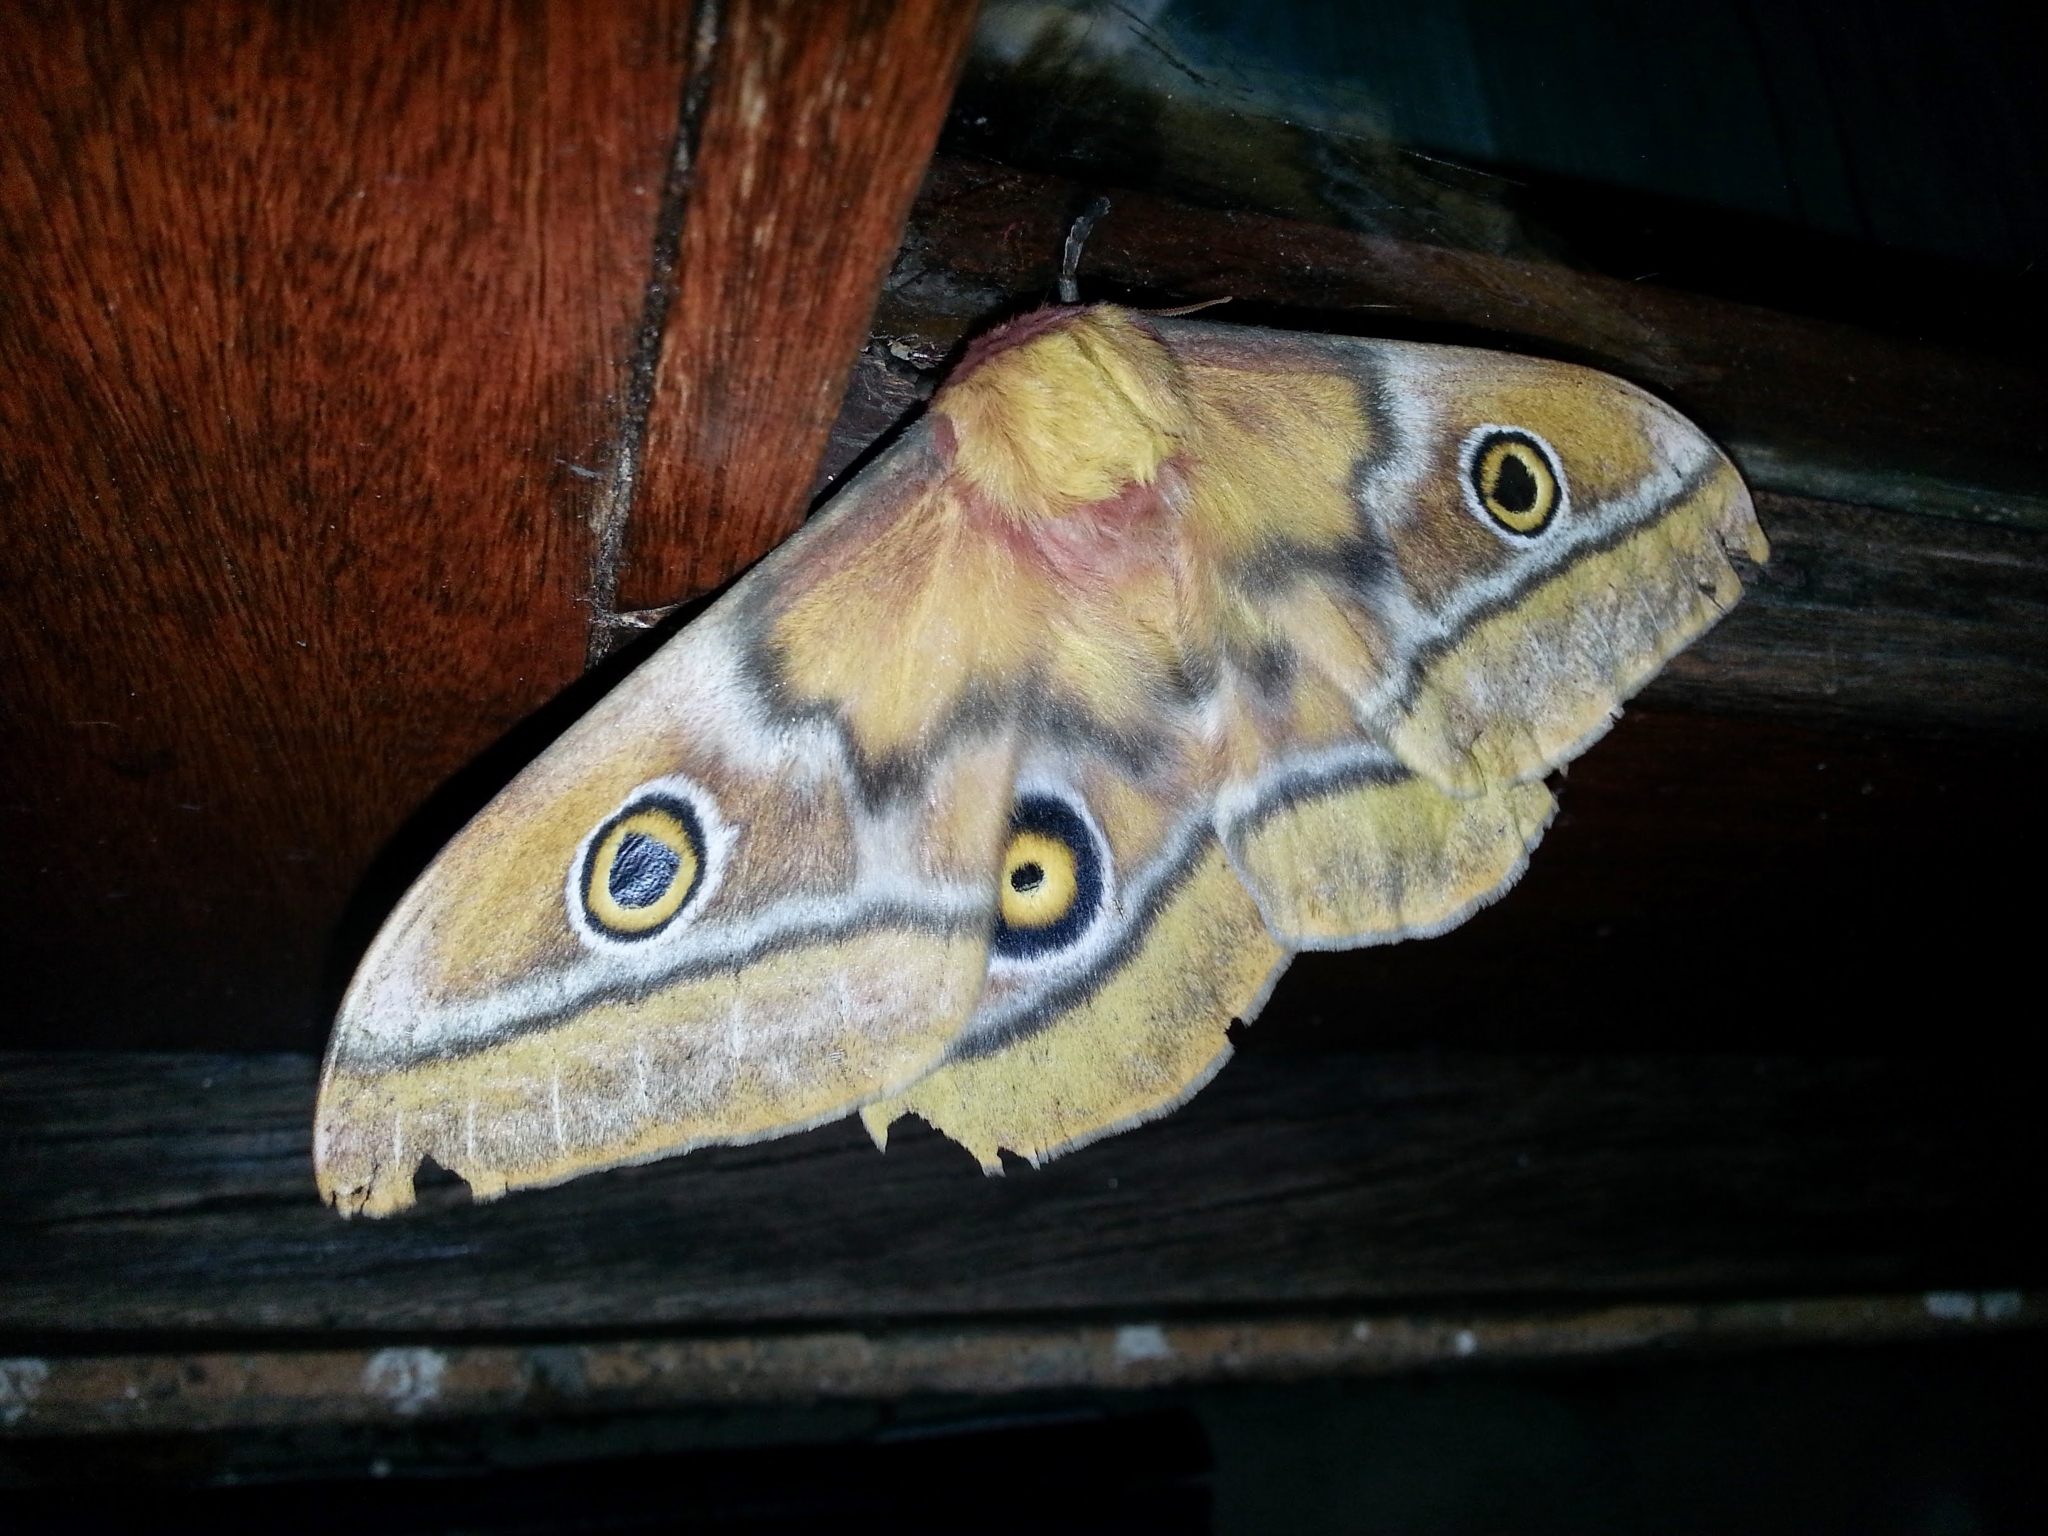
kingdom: Animalia
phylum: Arthropoda
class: Insecta
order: Lepidoptera
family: Saturniidae
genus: Nudaurelia
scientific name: Nudaurelia cytherea
